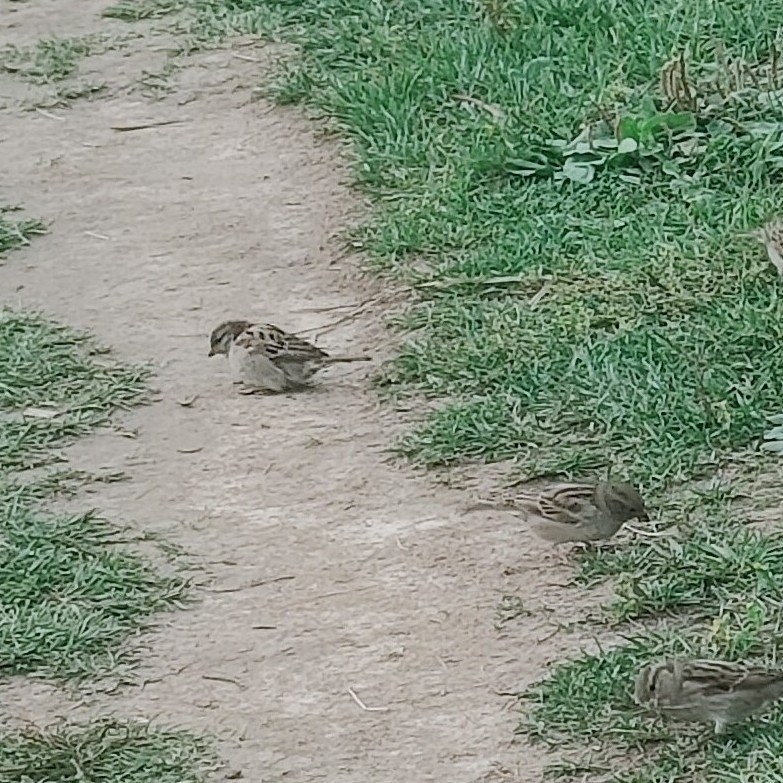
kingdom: Animalia
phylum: Chordata
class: Aves
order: Passeriformes
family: Passeridae
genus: Passer
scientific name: Passer domesticus
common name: House sparrow
